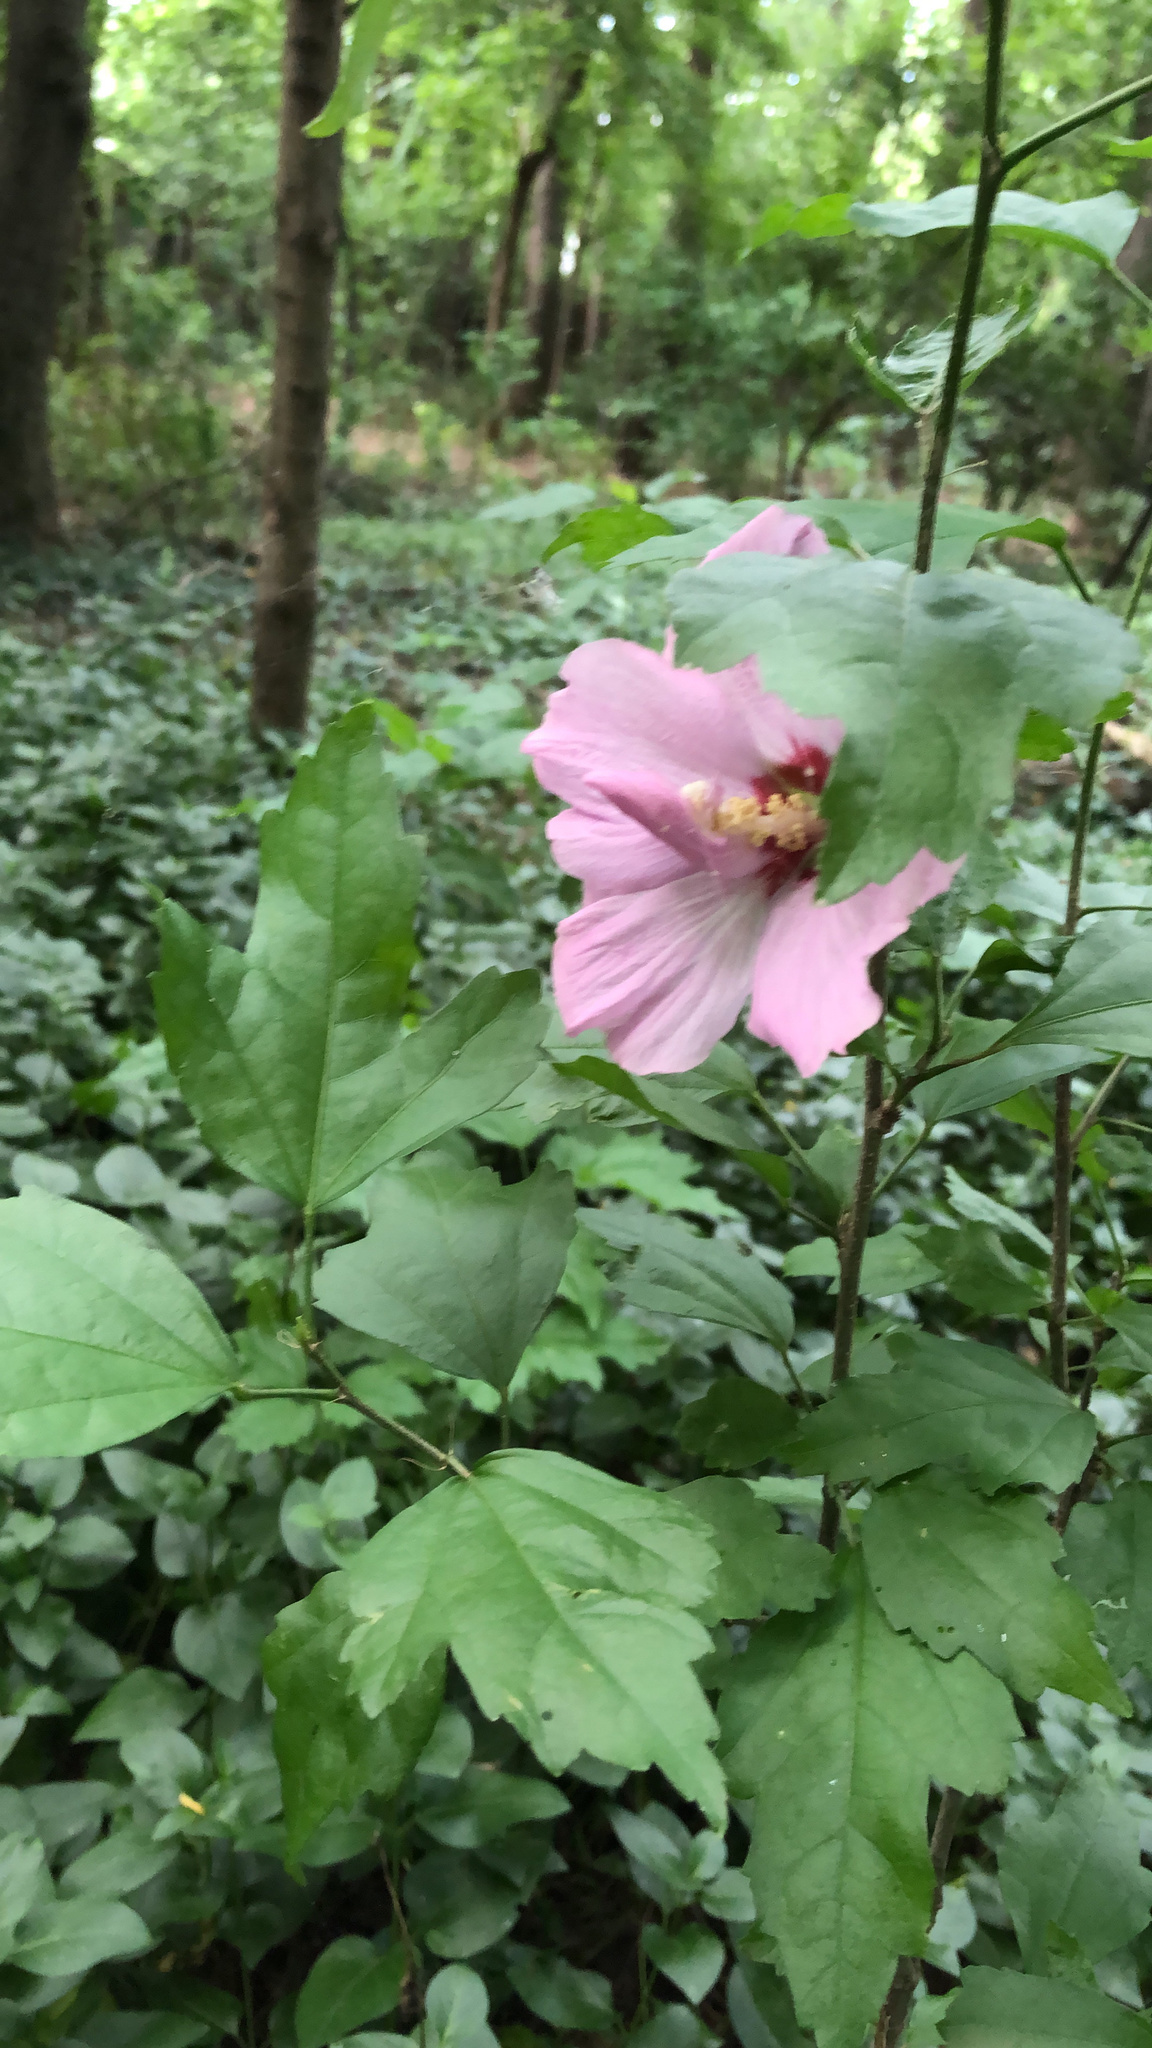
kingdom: Plantae
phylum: Tracheophyta
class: Magnoliopsida
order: Malvales
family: Malvaceae
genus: Hibiscus
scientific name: Hibiscus syriacus
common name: Syrian ketmia
